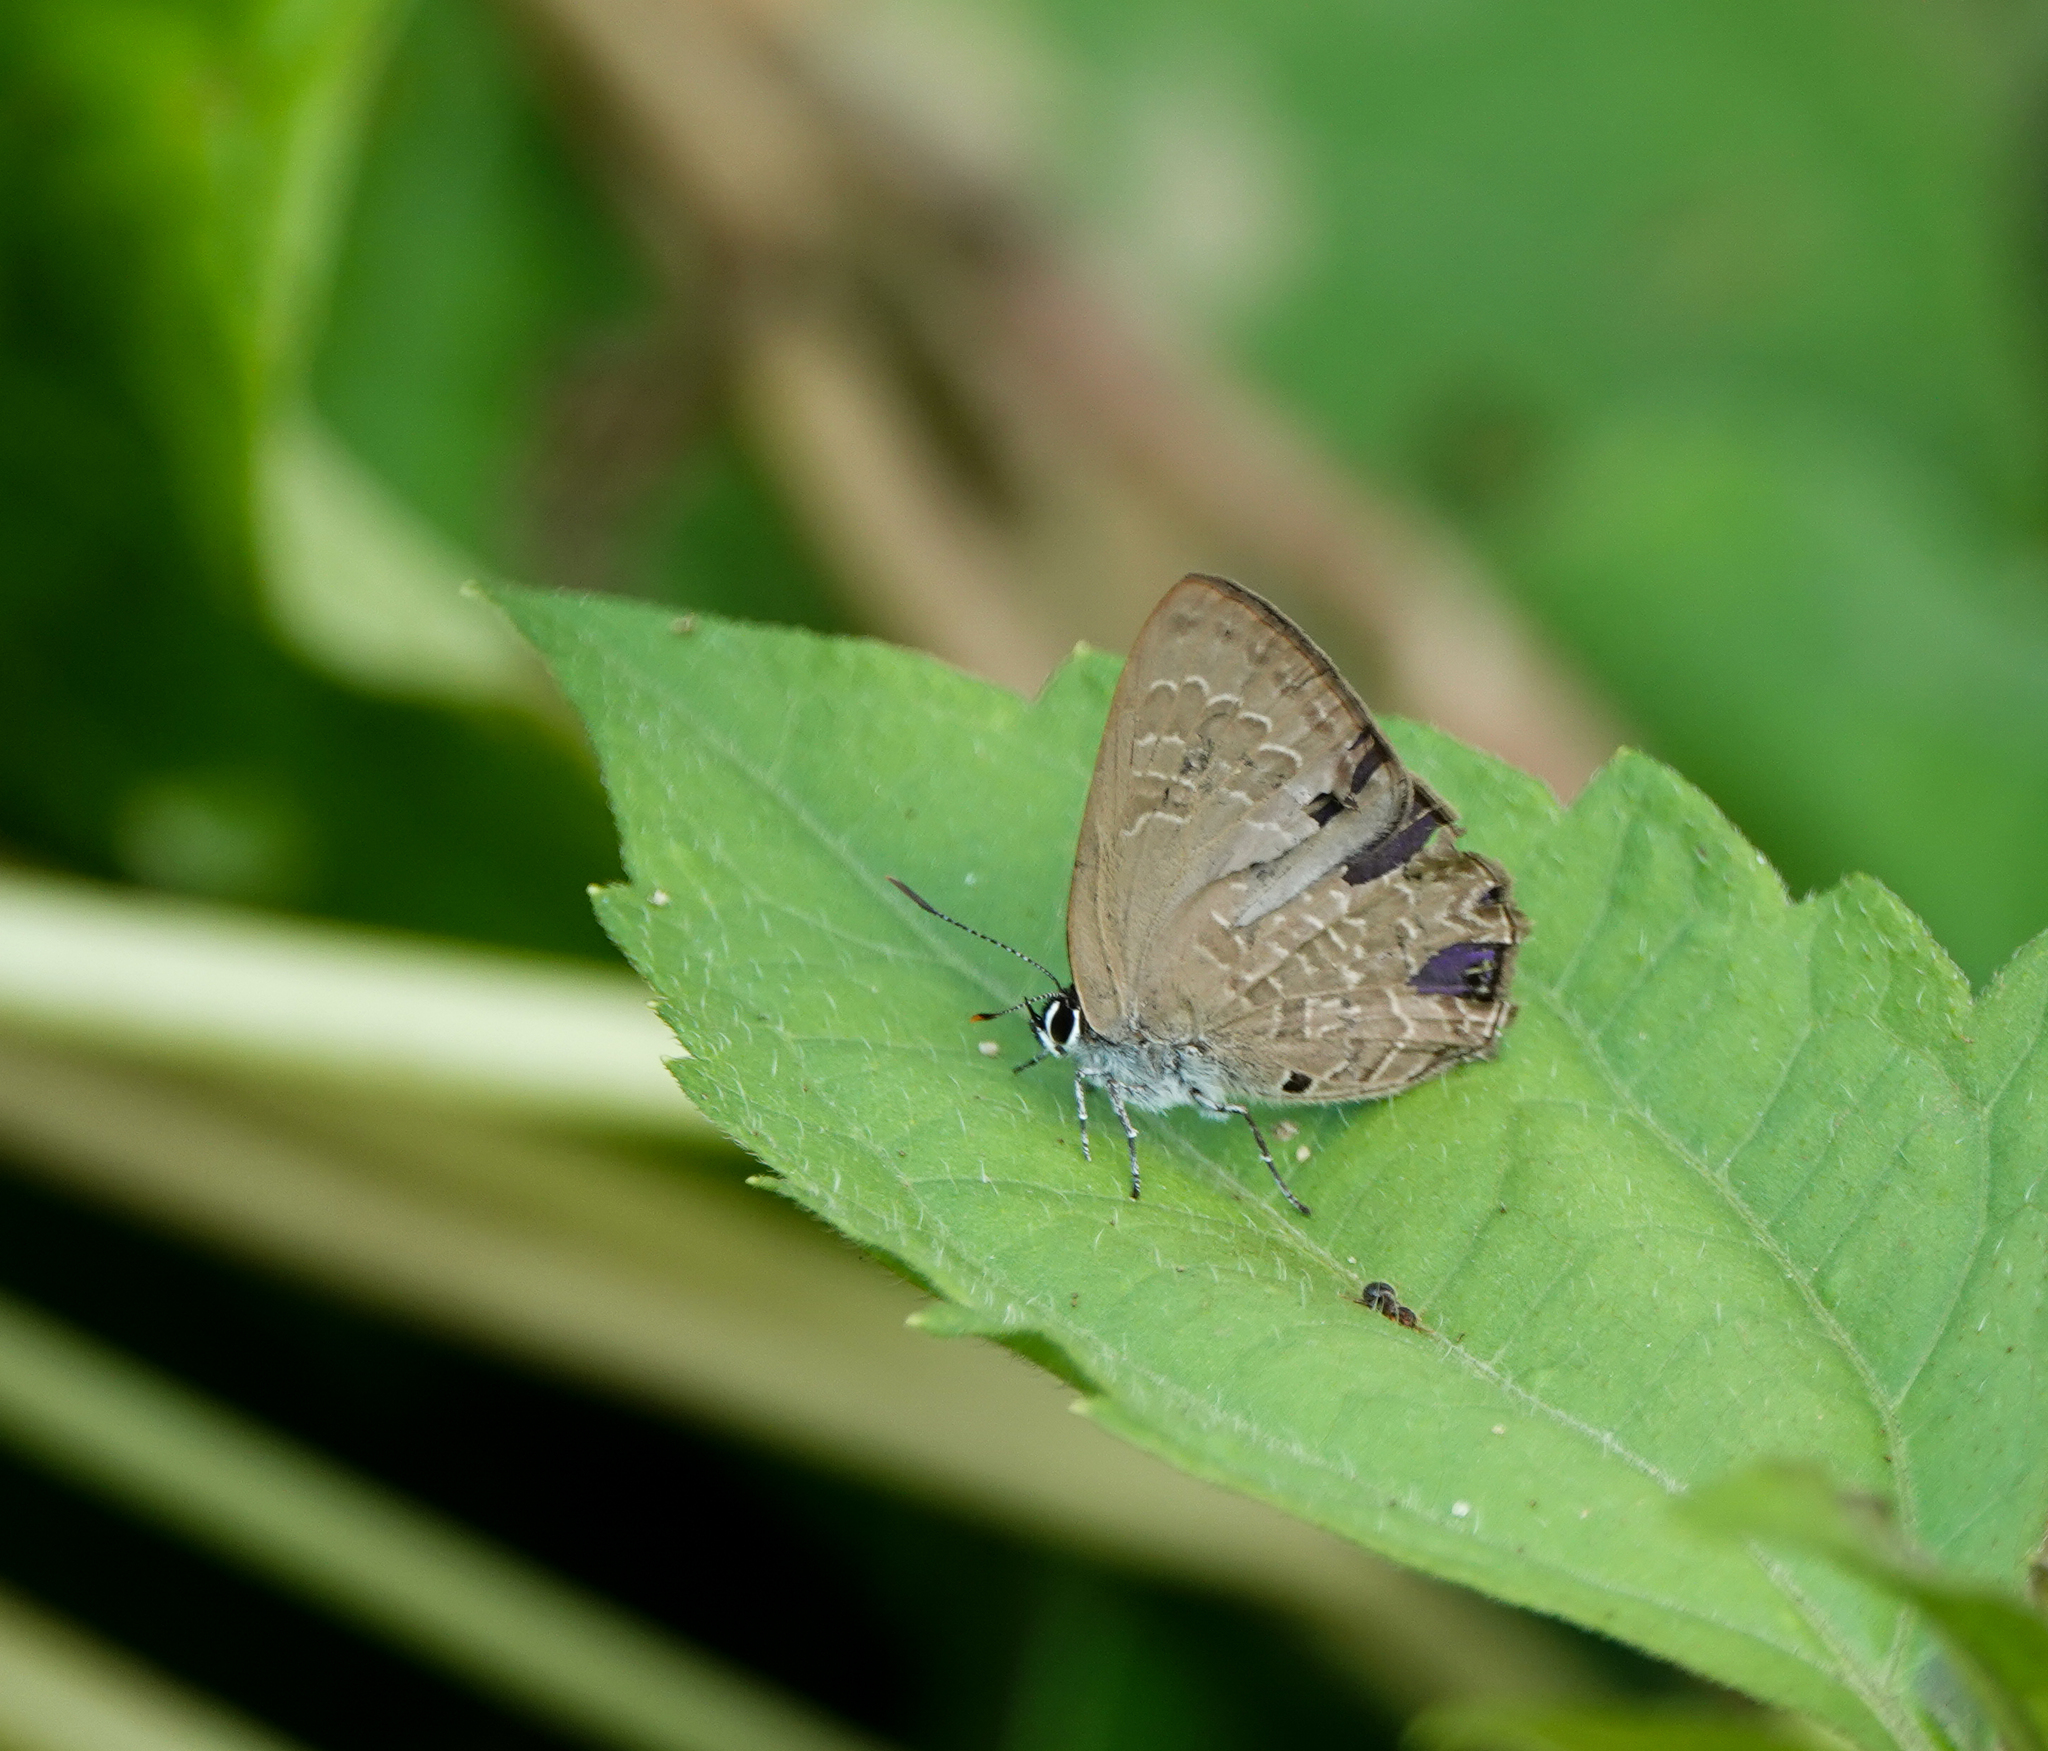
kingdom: Animalia
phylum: Arthropoda
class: Insecta
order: Lepidoptera
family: Lycaenidae
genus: Anthene
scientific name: Anthene emolus
